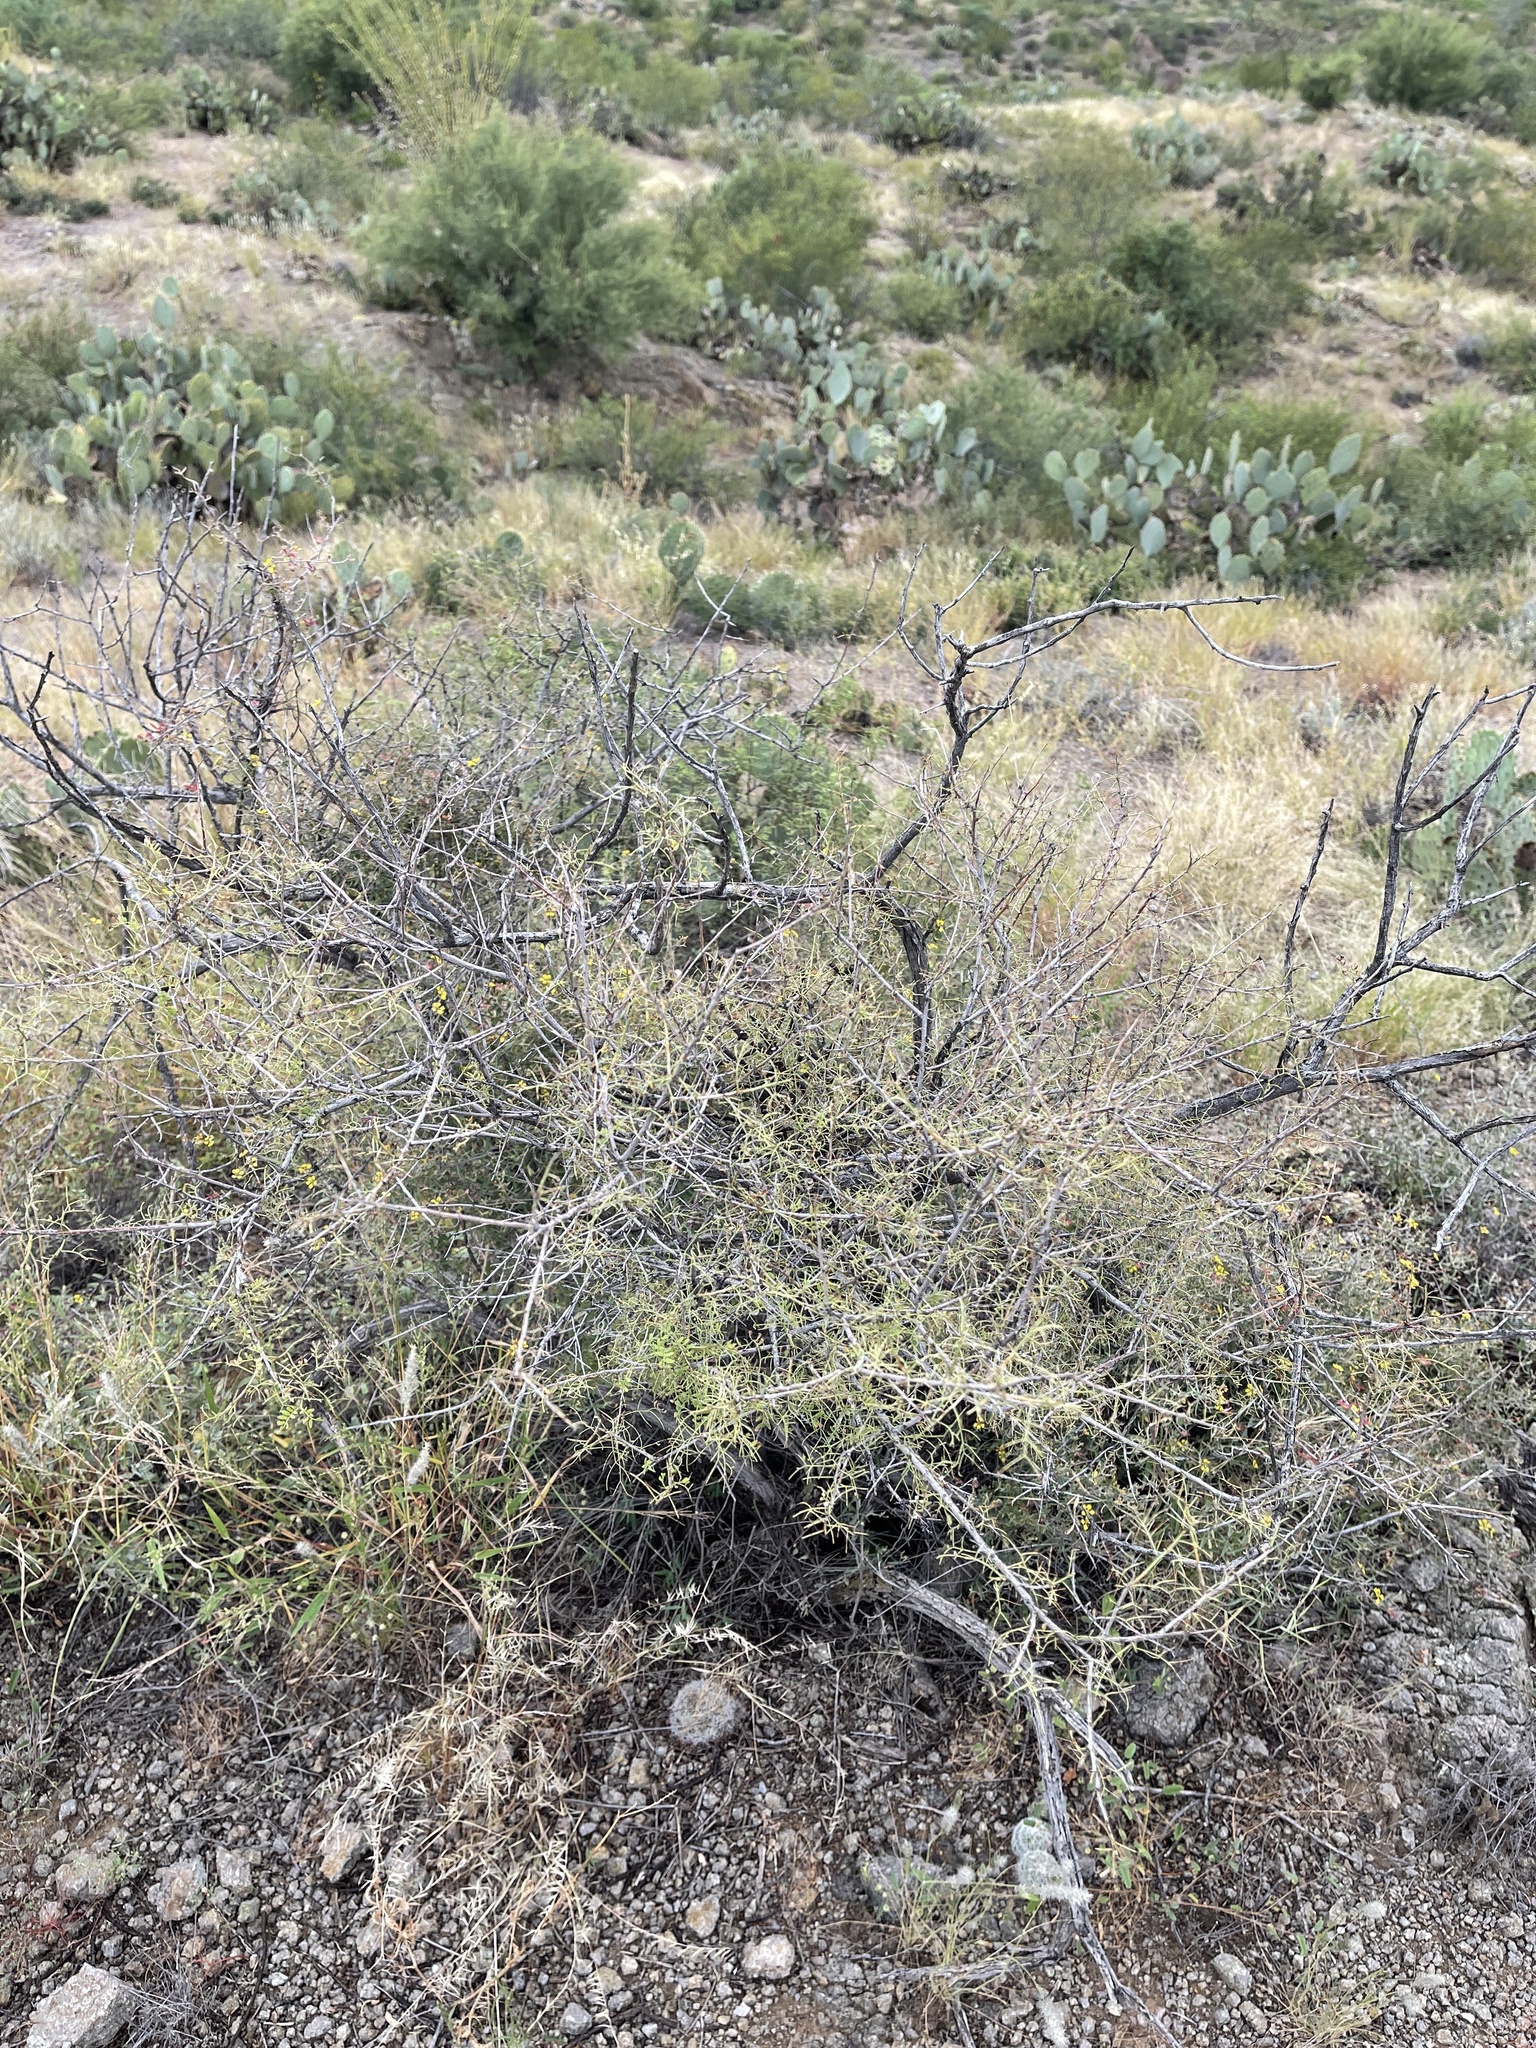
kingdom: Plantae
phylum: Tracheophyta
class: Magnoliopsida
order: Fabales
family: Fabaceae
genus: Senegalia
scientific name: Senegalia greggii
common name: Texas-mimosa
